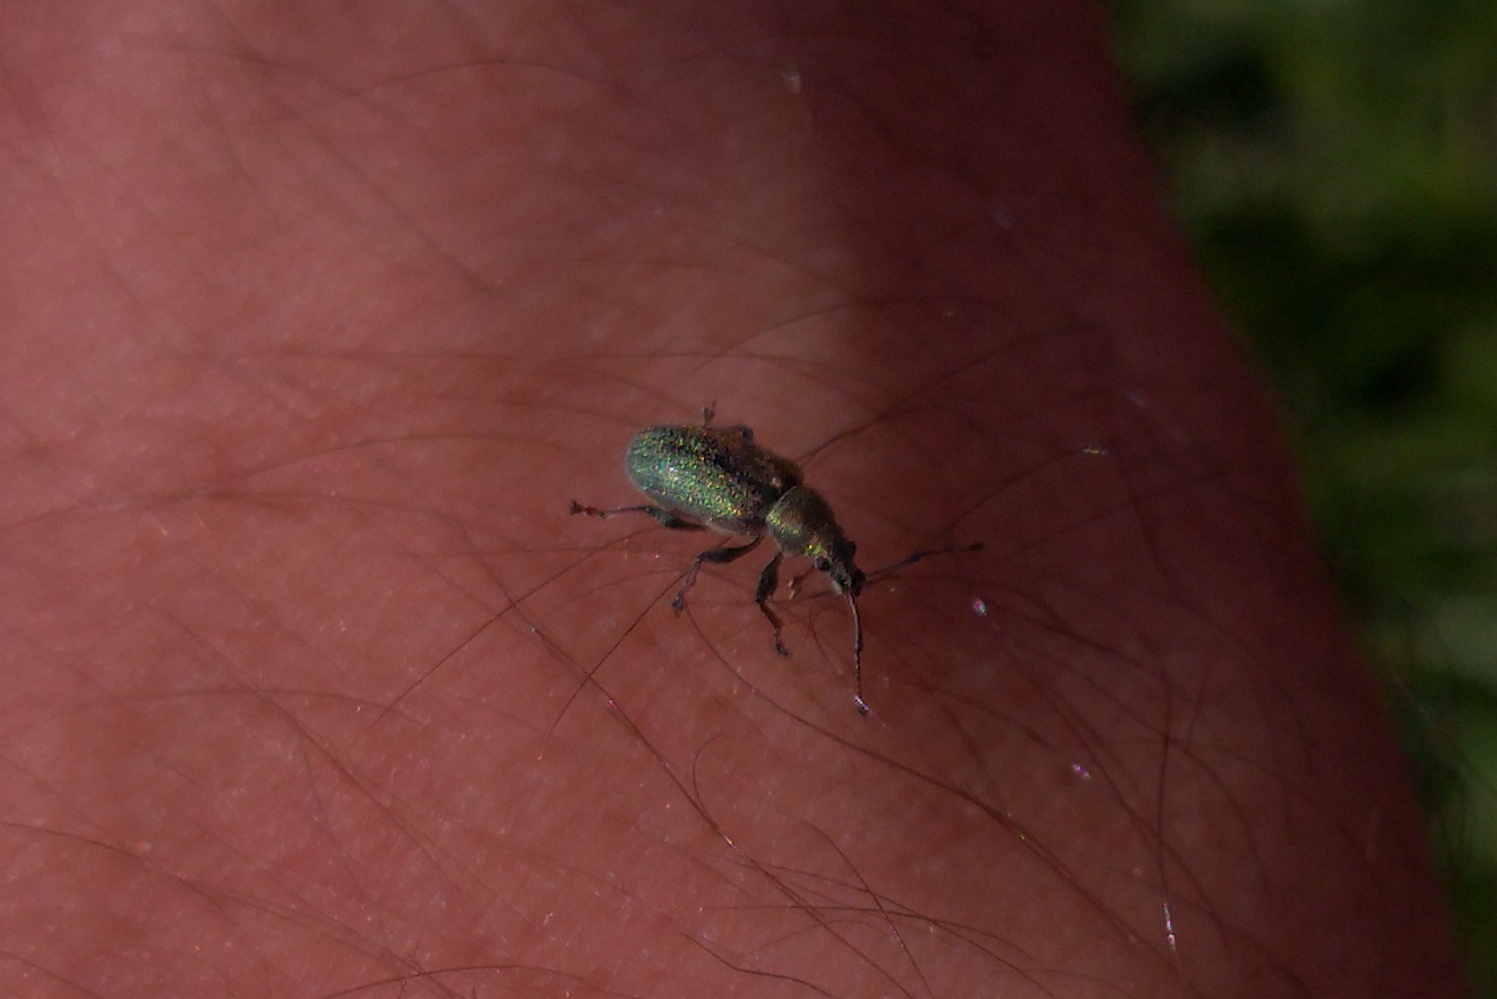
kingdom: Animalia
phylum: Arthropoda
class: Insecta
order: Coleoptera
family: Curculionidae
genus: Phyllobius
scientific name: Phyllobius pyri
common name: Common leaf weevil
